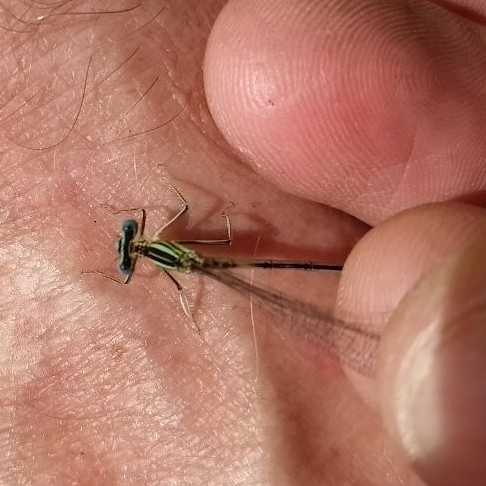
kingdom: Animalia
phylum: Arthropoda
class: Insecta
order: Odonata
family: Platycnemididae
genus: Platycnemis
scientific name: Platycnemis pennipes
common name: White-legged damselfly
